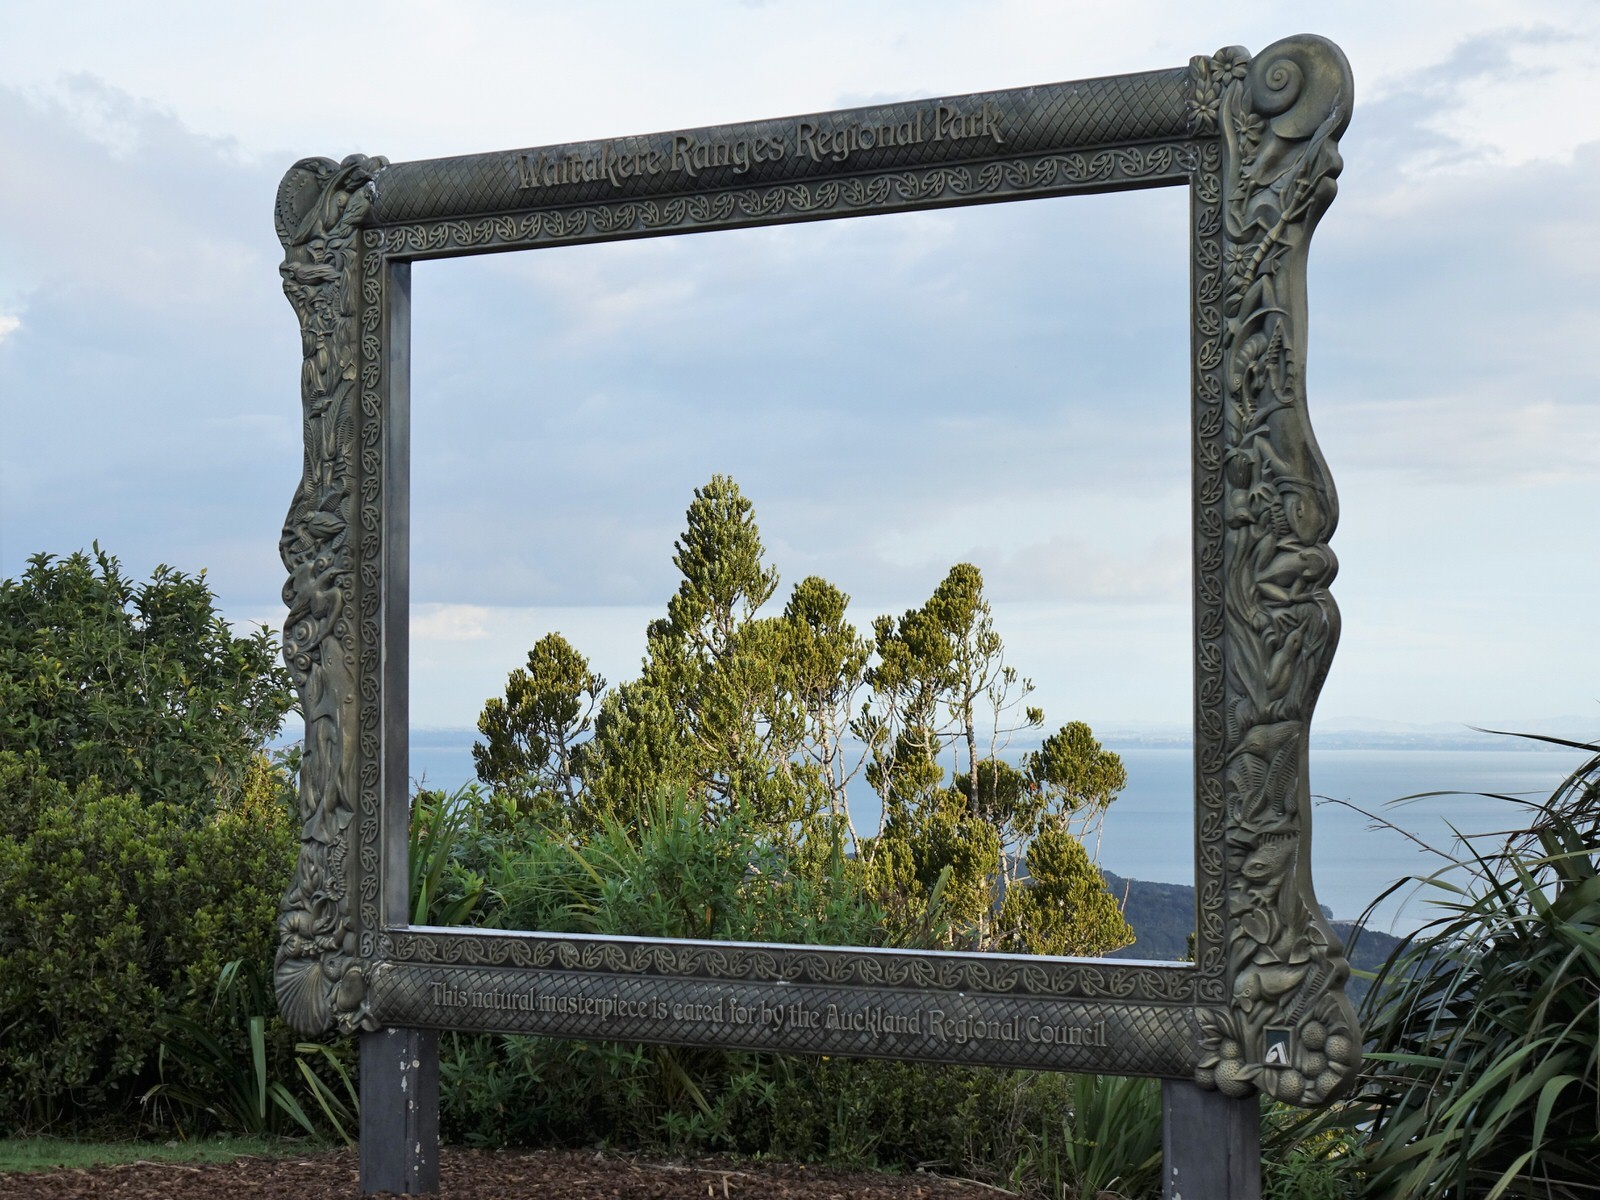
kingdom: Plantae
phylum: Tracheophyta
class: Pinopsida
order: Pinales
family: Araucariaceae
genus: Agathis
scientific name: Agathis australis
